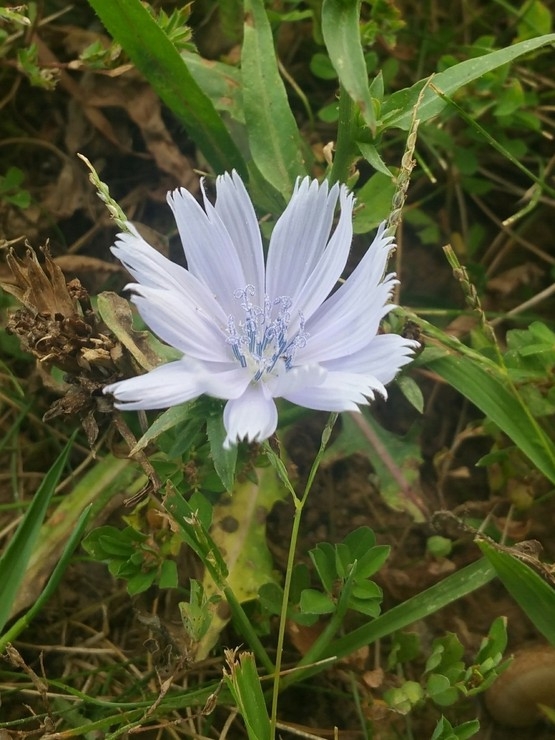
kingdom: Plantae
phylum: Tracheophyta
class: Magnoliopsida
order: Asterales
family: Asteraceae
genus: Cichorium
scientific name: Cichorium intybus
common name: Chicory
